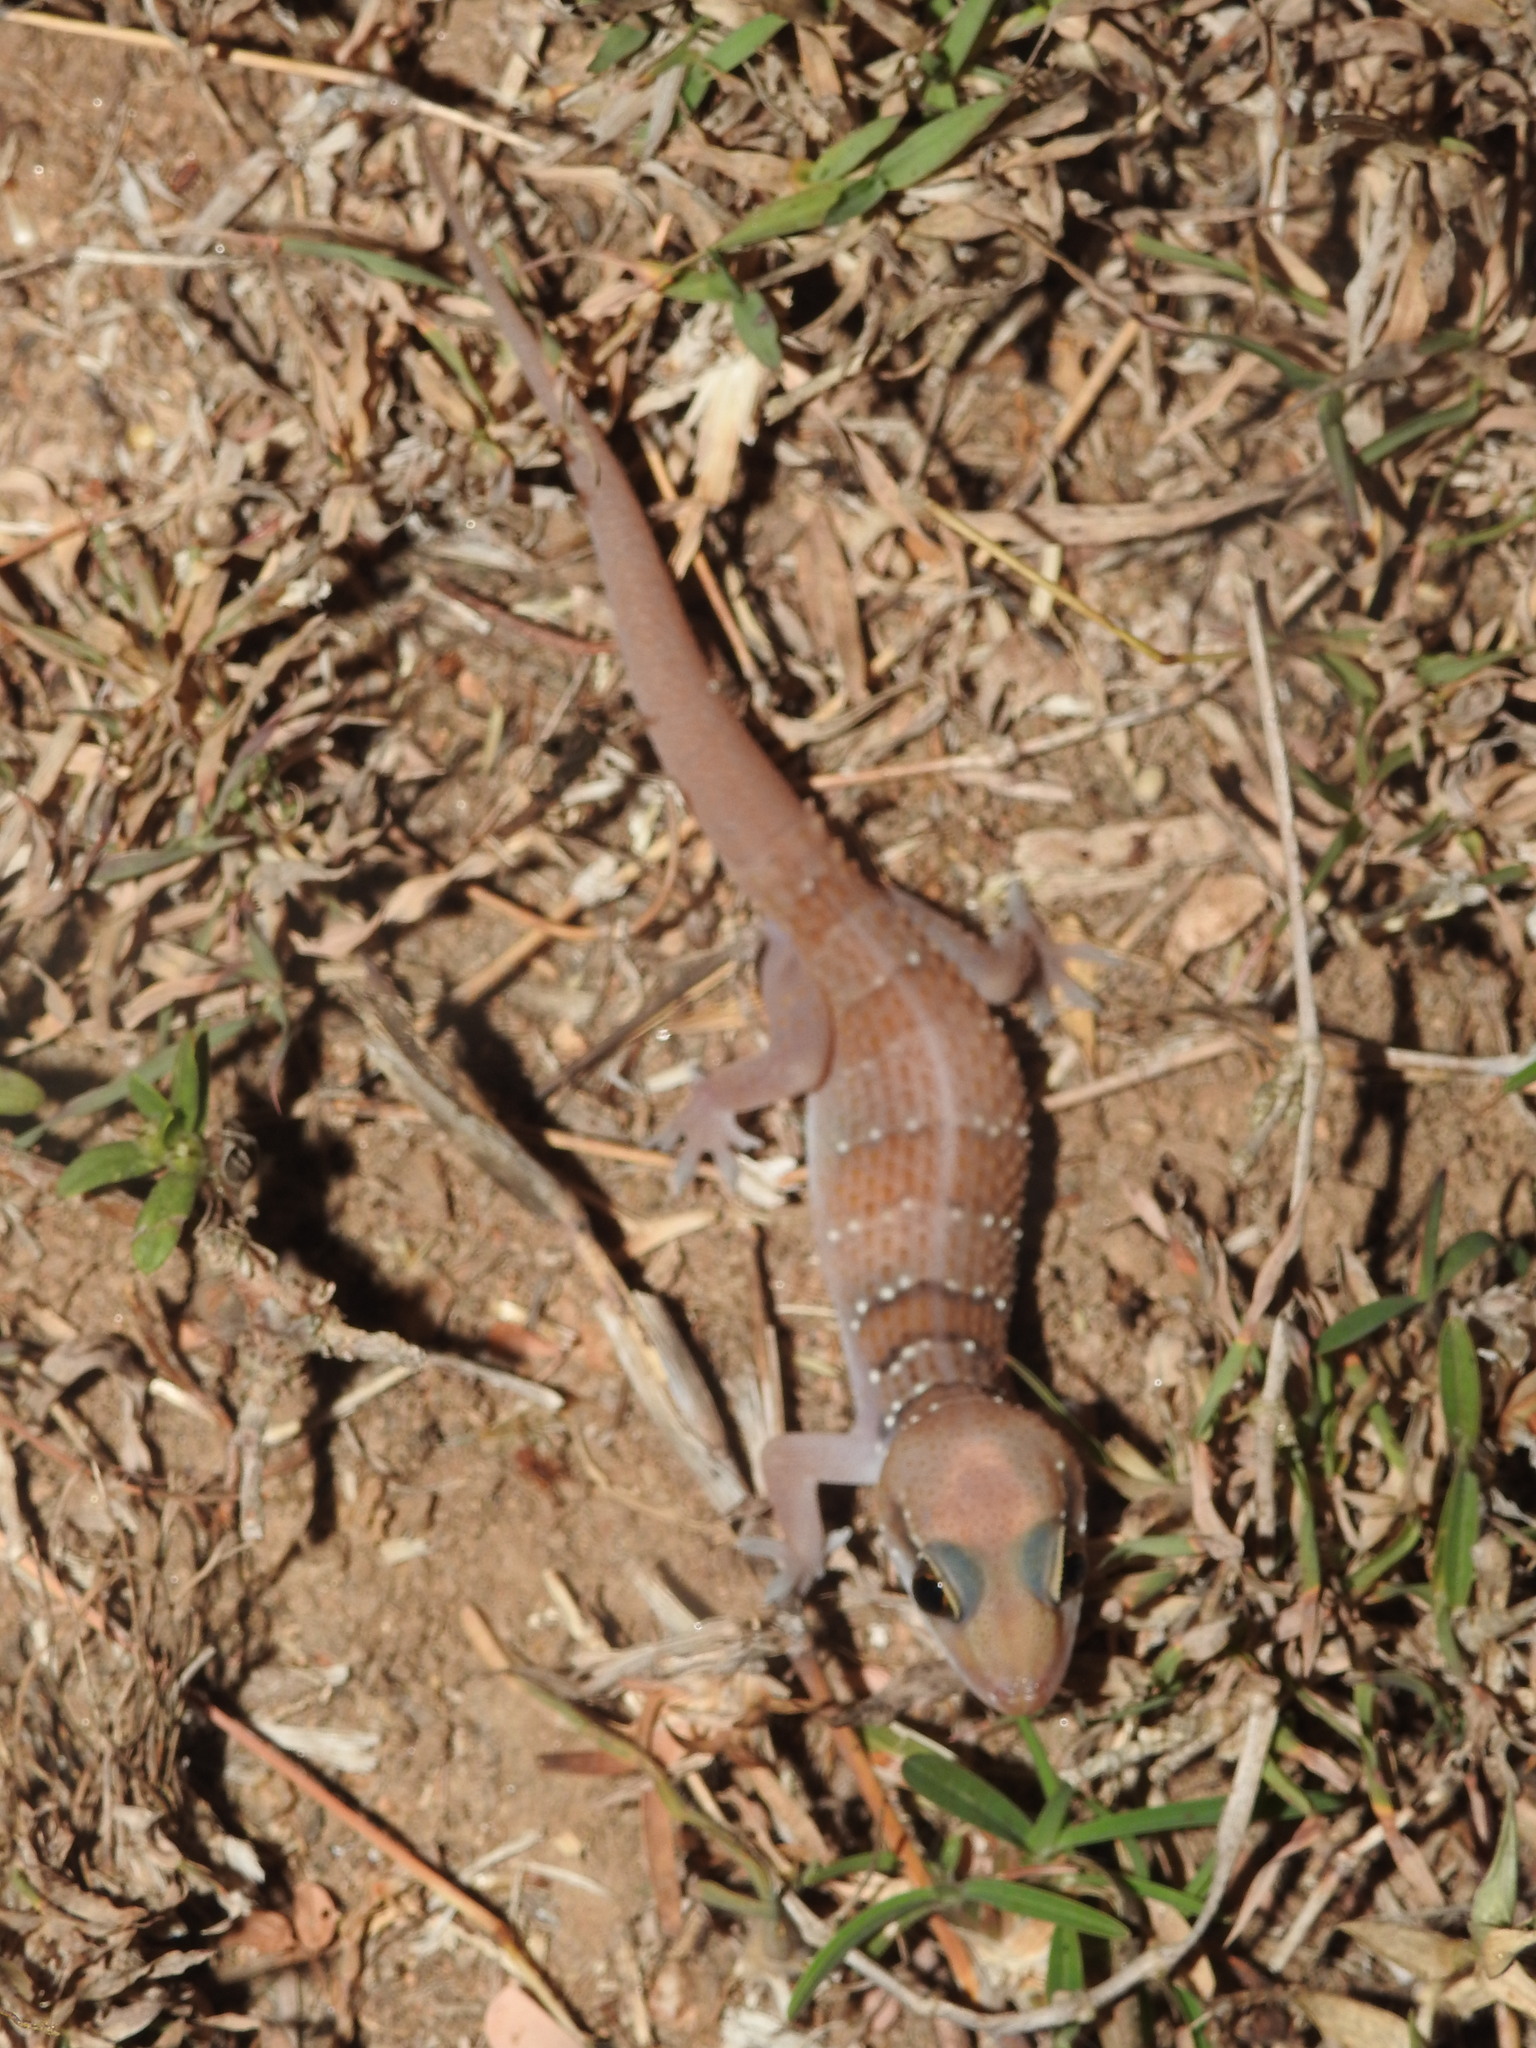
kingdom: Animalia
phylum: Chordata
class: Squamata
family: Gekkonidae
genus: Hemidactylus
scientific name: Hemidactylus whitakeri
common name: Whitaker’s termite hill gecko
